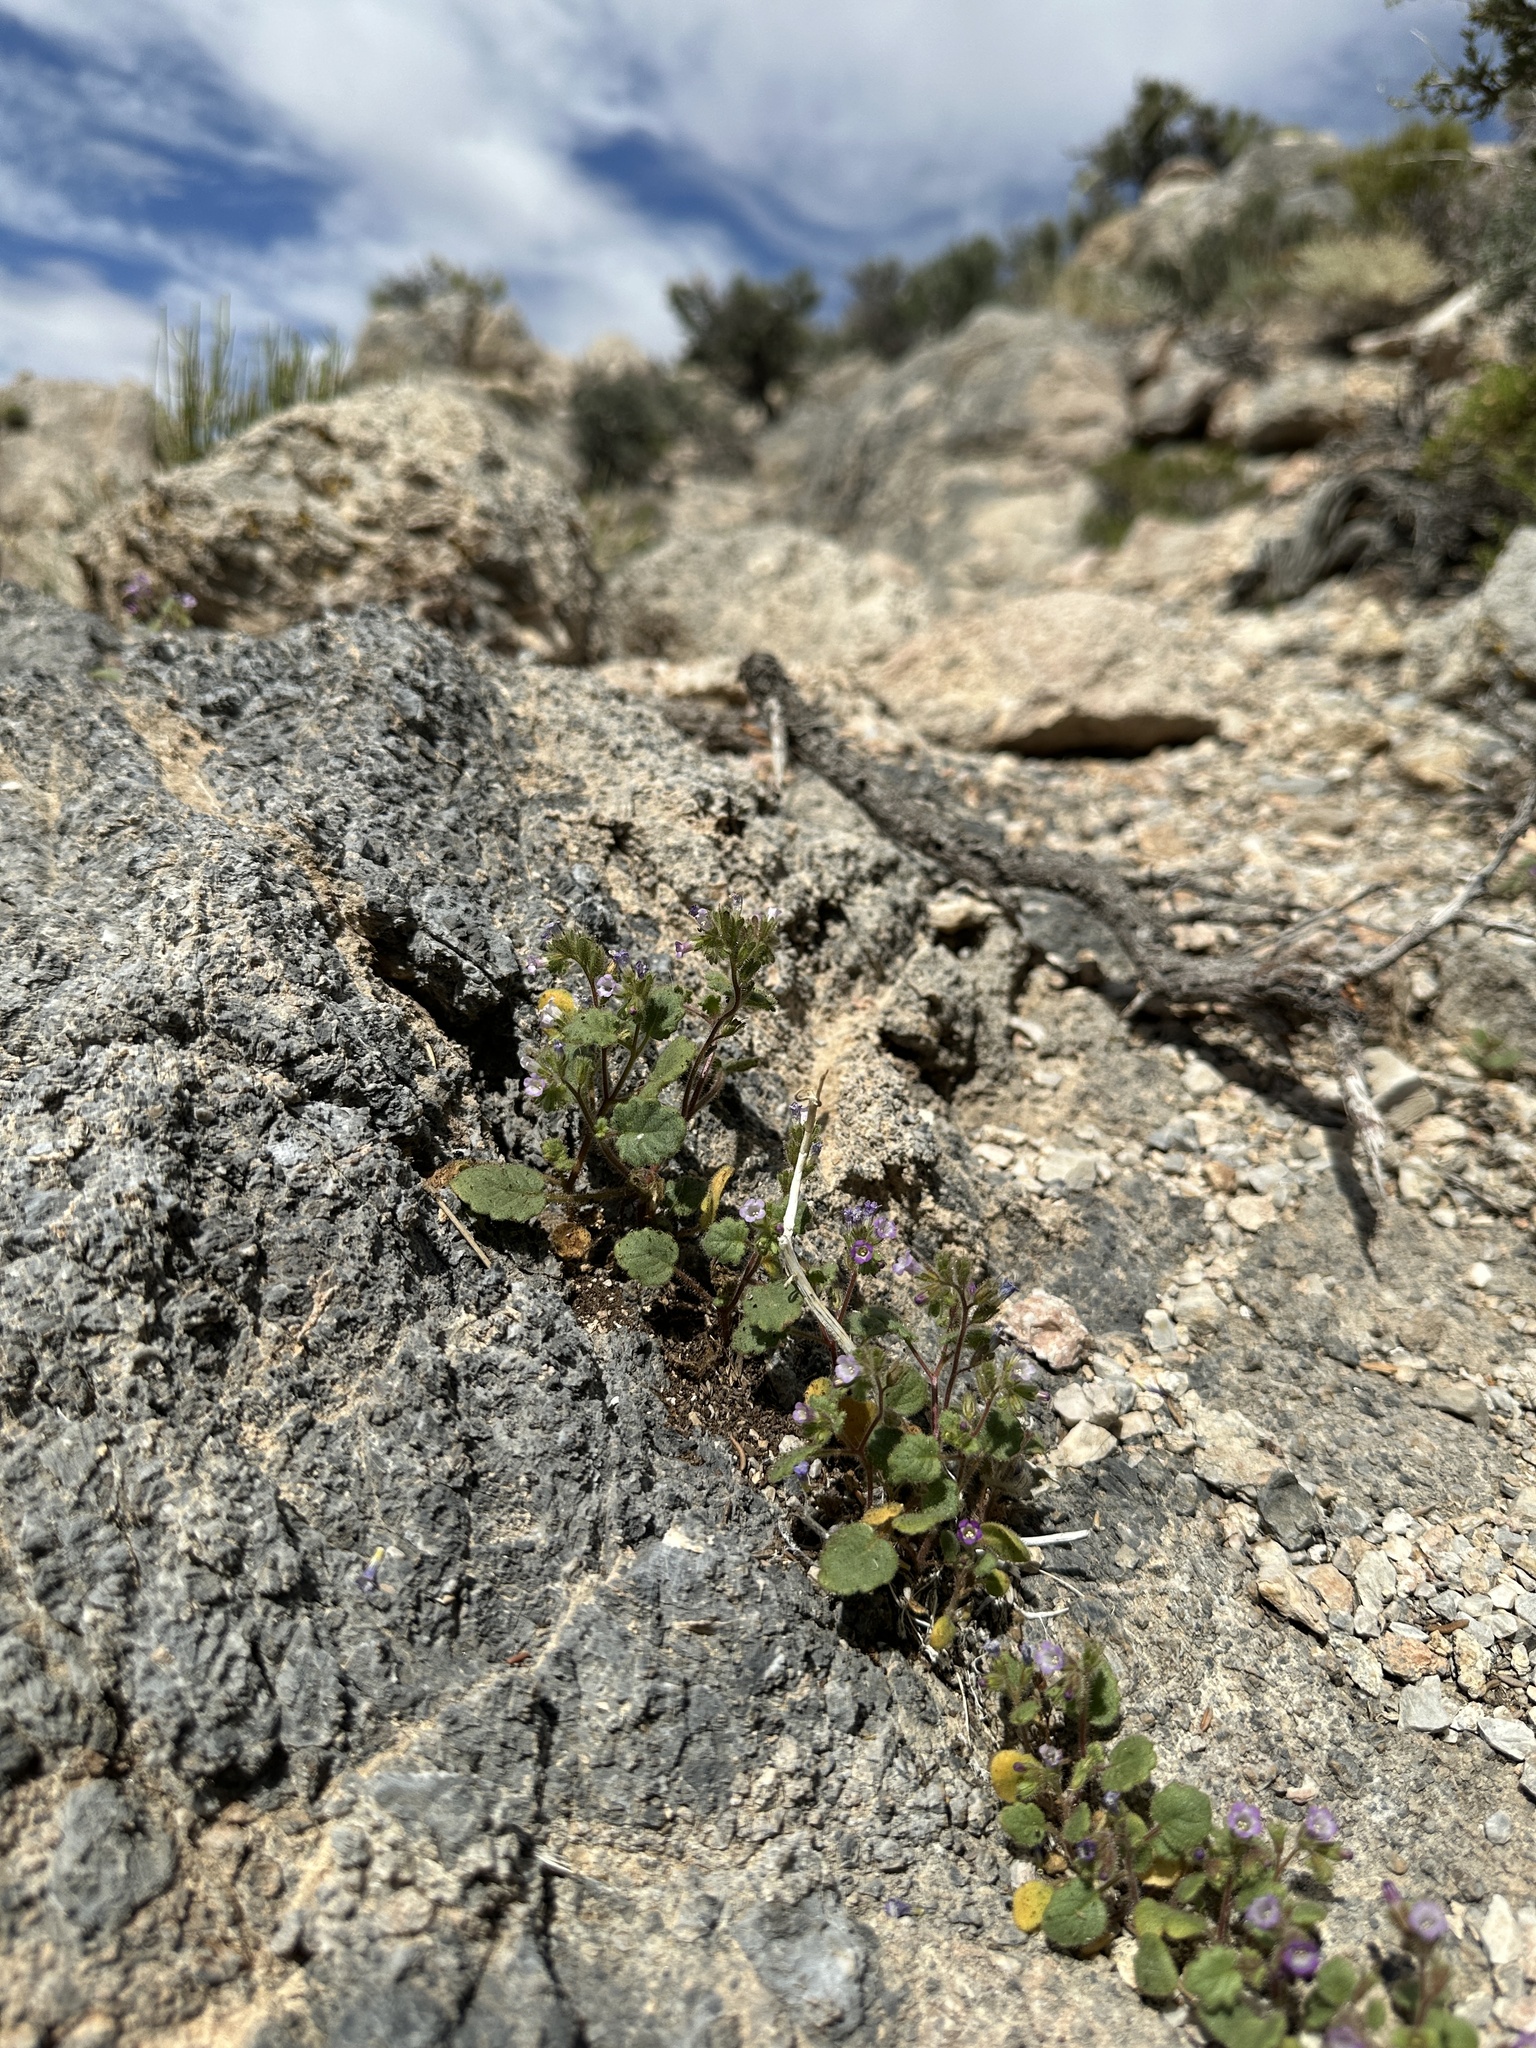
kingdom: Plantae
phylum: Tracheophyta
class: Magnoliopsida
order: Boraginales
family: Hydrophyllaceae
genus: Phacelia
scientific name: Phacelia mustelina
